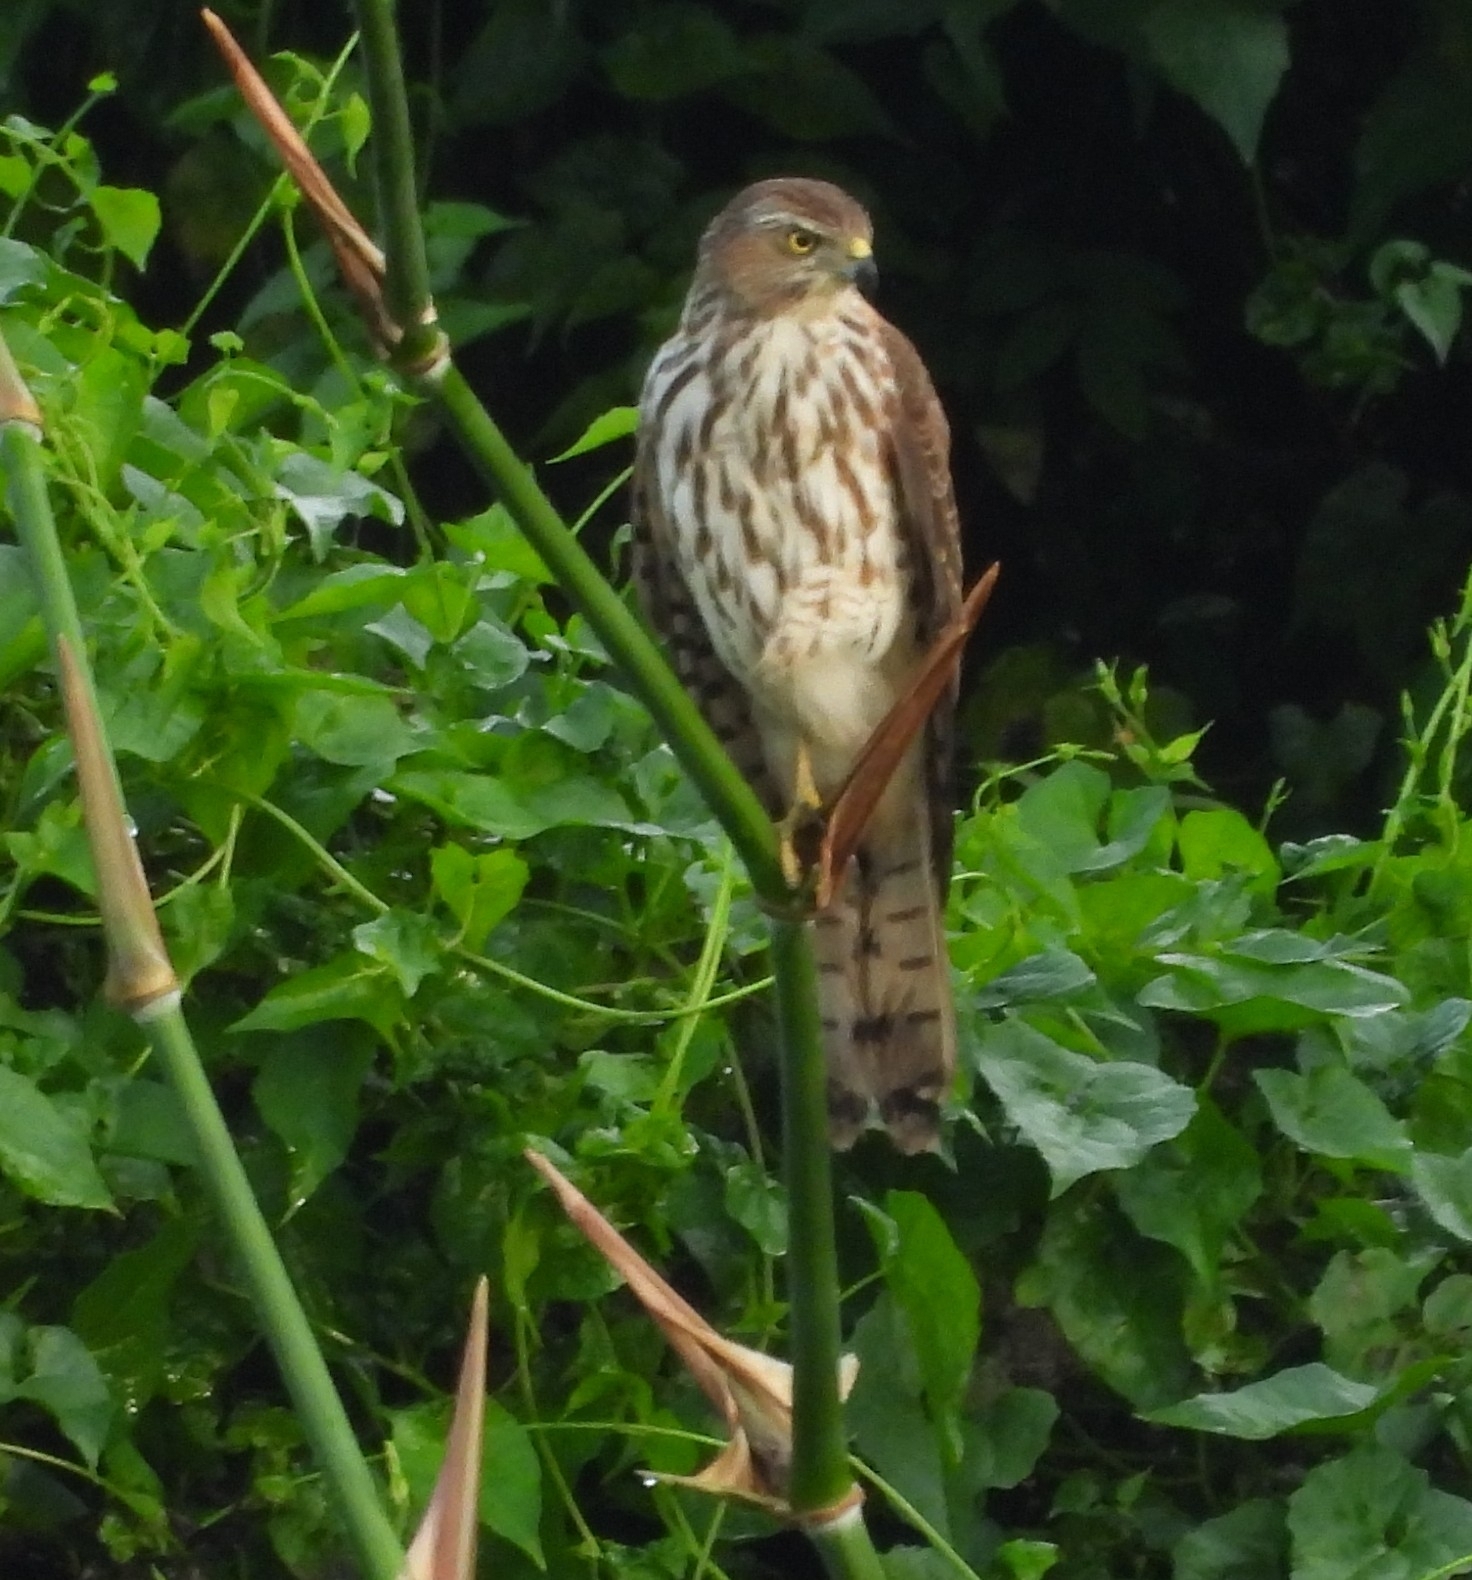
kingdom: Animalia
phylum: Chordata
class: Aves
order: Accipitriformes
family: Accipitridae
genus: Accipiter
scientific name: Accipiter badius
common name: Shikra
